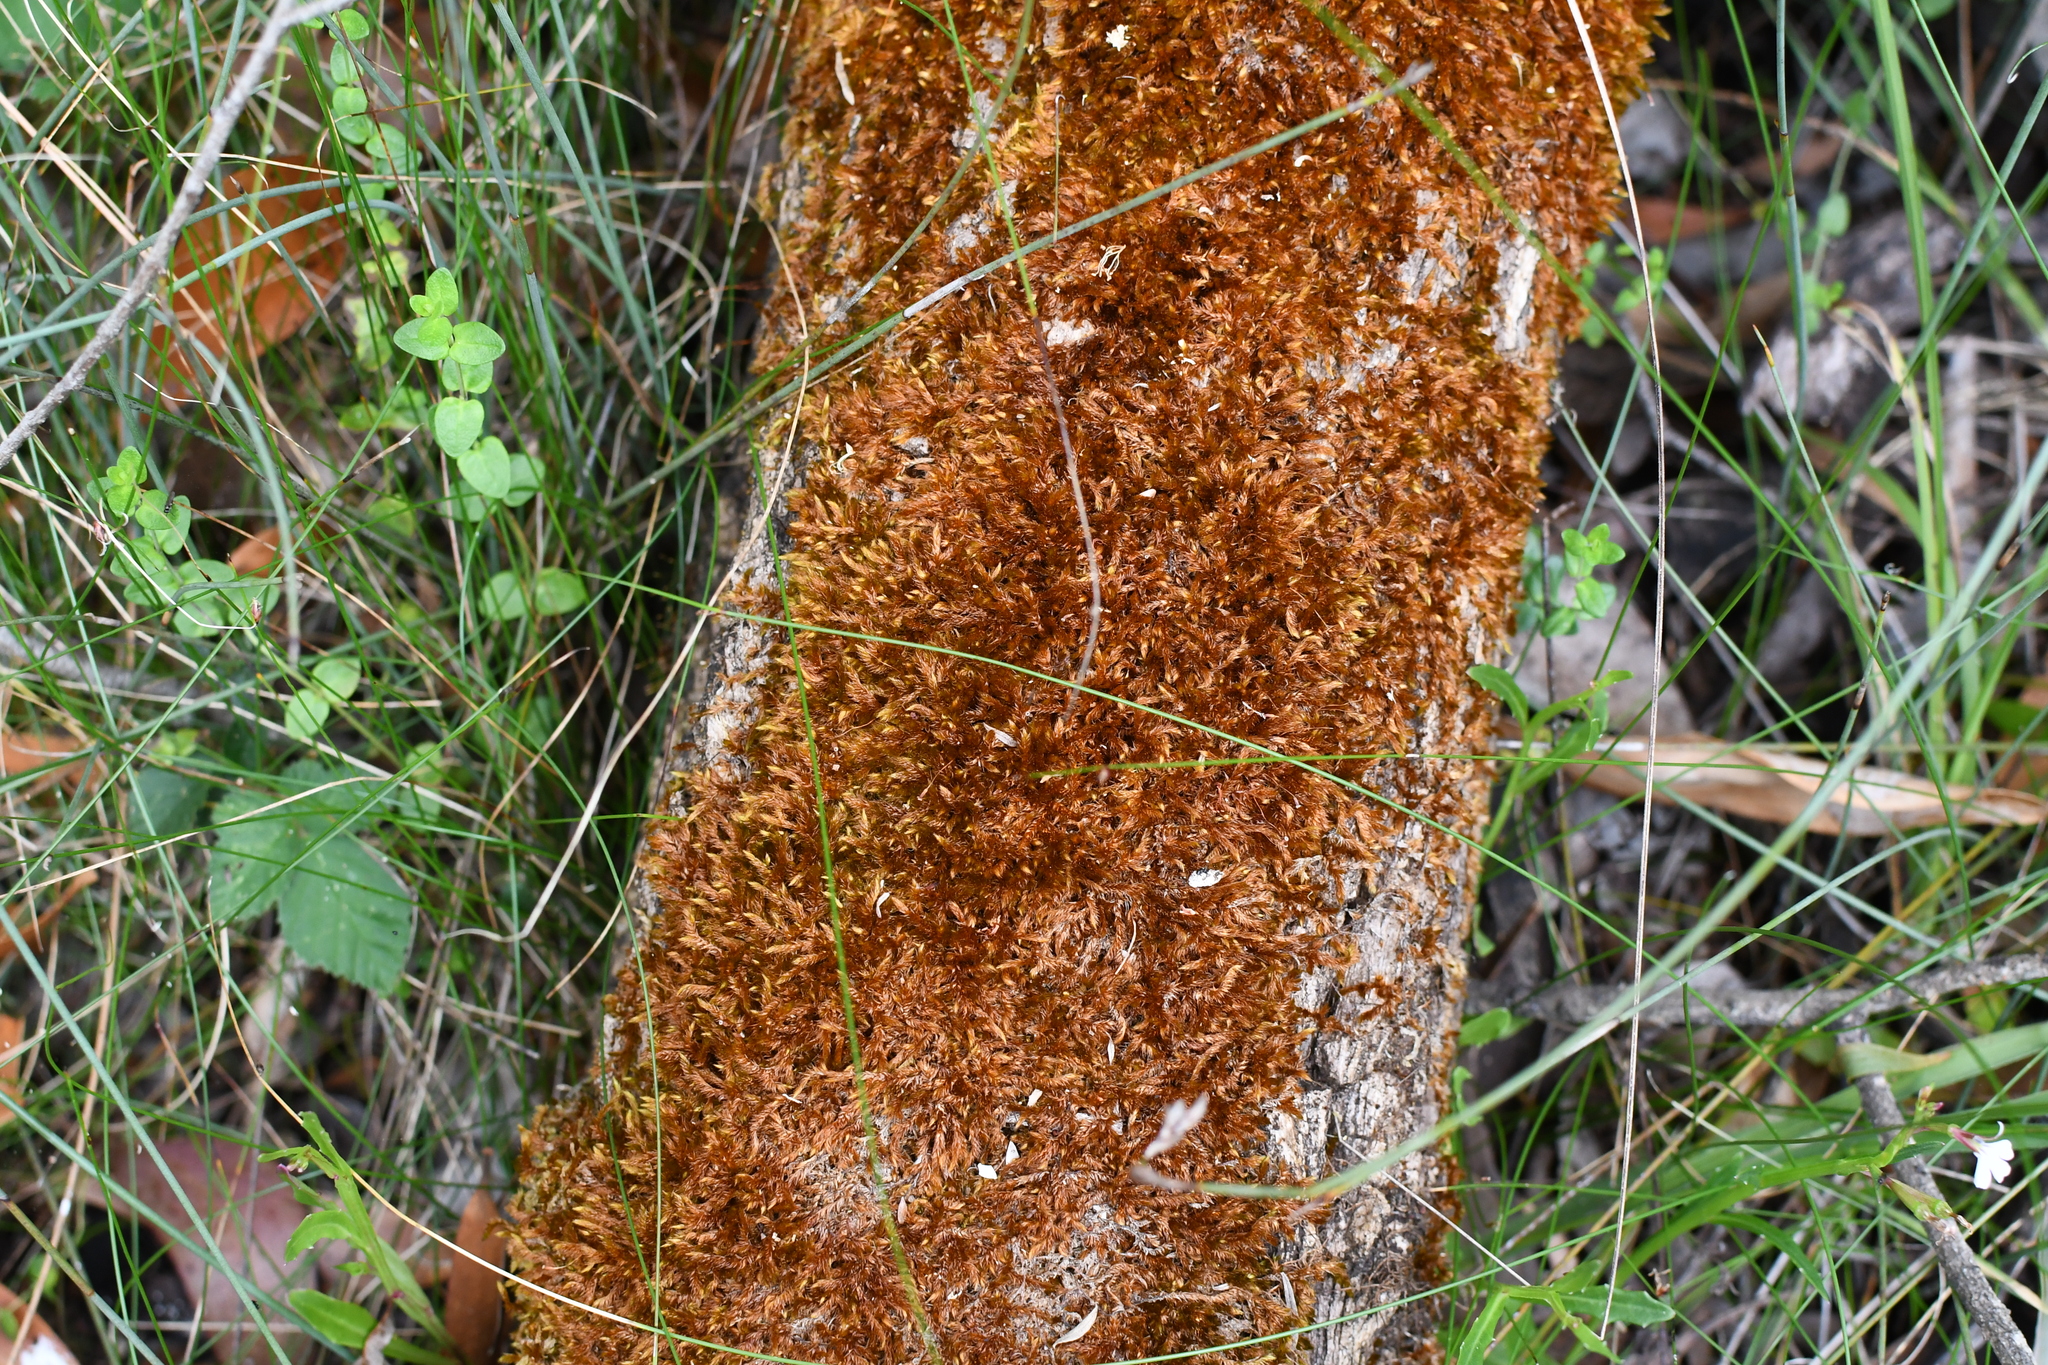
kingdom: Plantae
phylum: Bryophyta
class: Bryopsida
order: Hypnales
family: Sematophyllaceae
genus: Sematophyllum
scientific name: Sematophyllum homomallum
